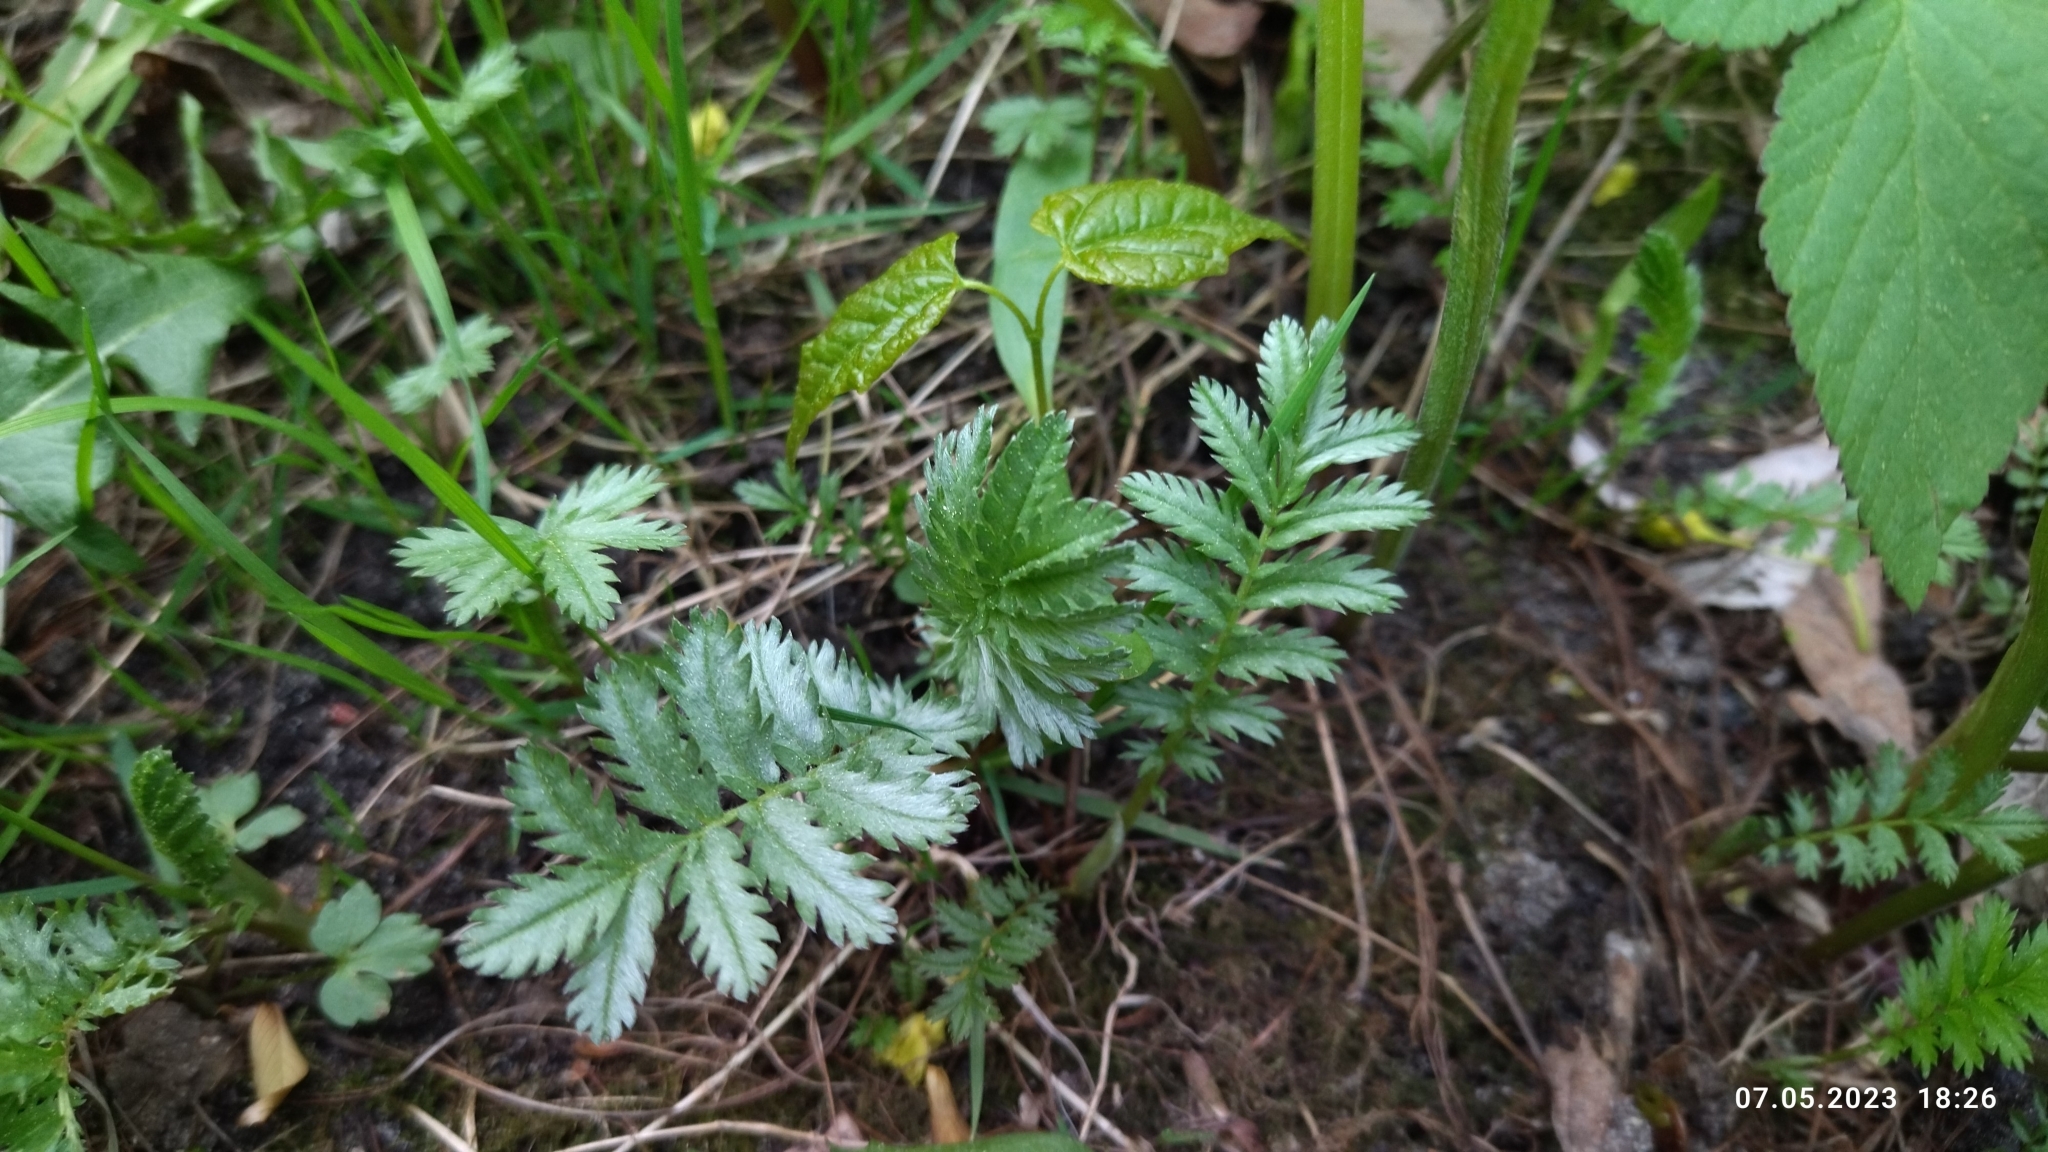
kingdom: Plantae
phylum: Tracheophyta
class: Magnoliopsida
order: Rosales
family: Rosaceae
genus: Argentina
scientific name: Argentina anserina
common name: Common silverweed
